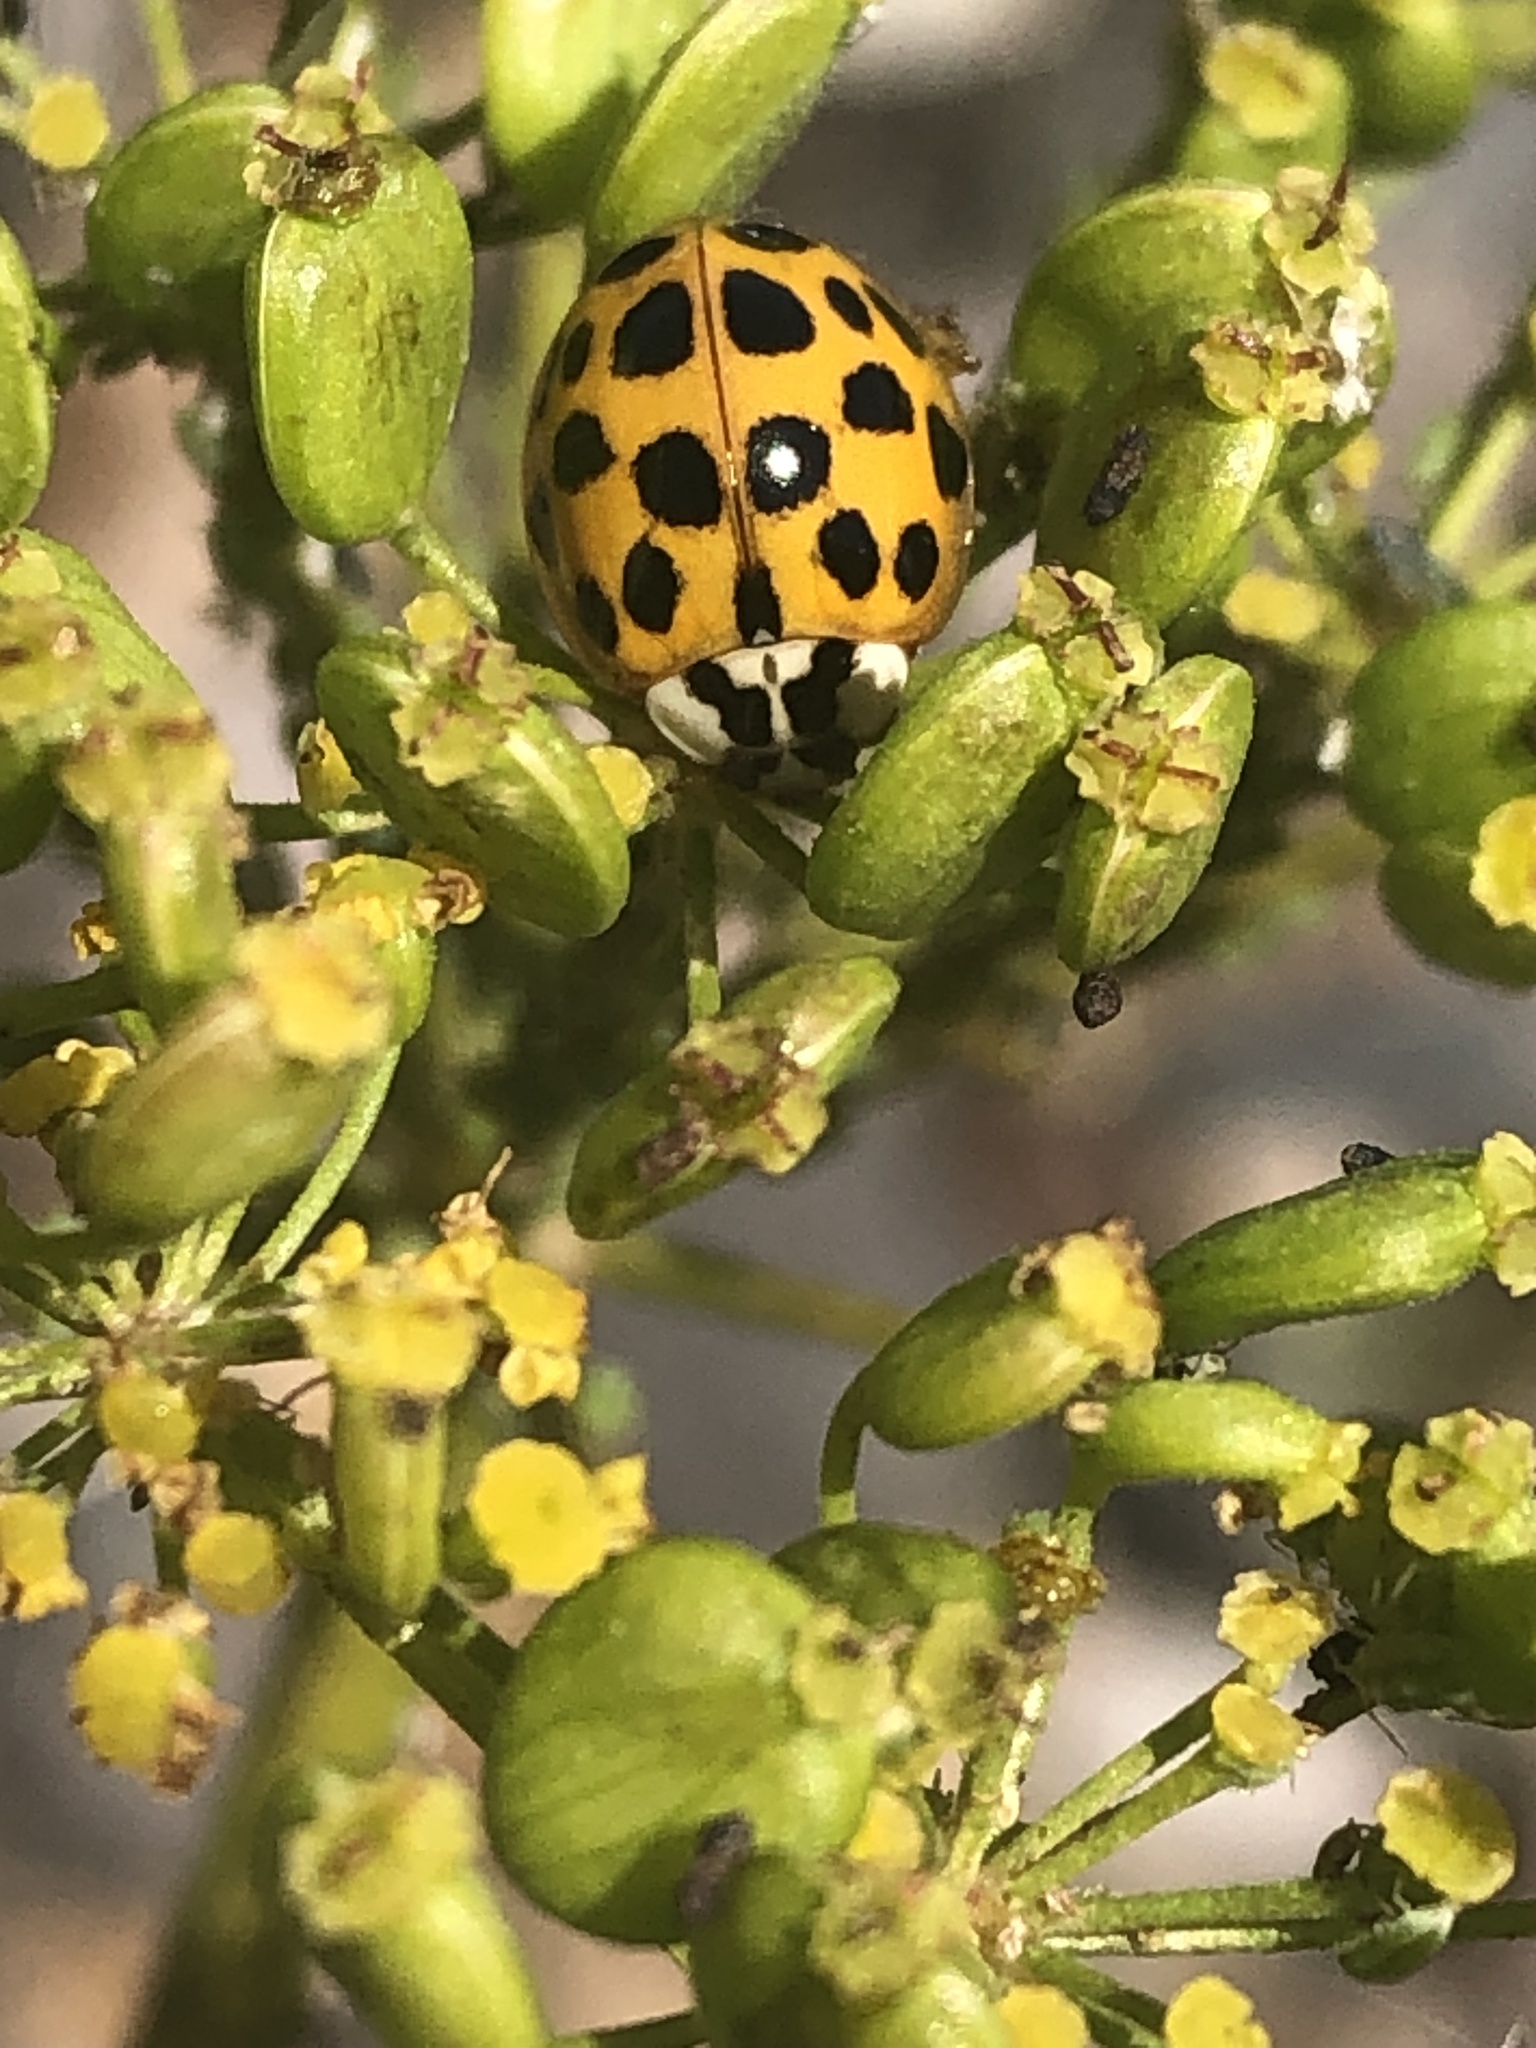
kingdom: Animalia
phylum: Arthropoda
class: Insecta
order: Coleoptera
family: Coccinellidae
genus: Harmonia
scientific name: Harmonia axyridis
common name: Harlequin ladybird
